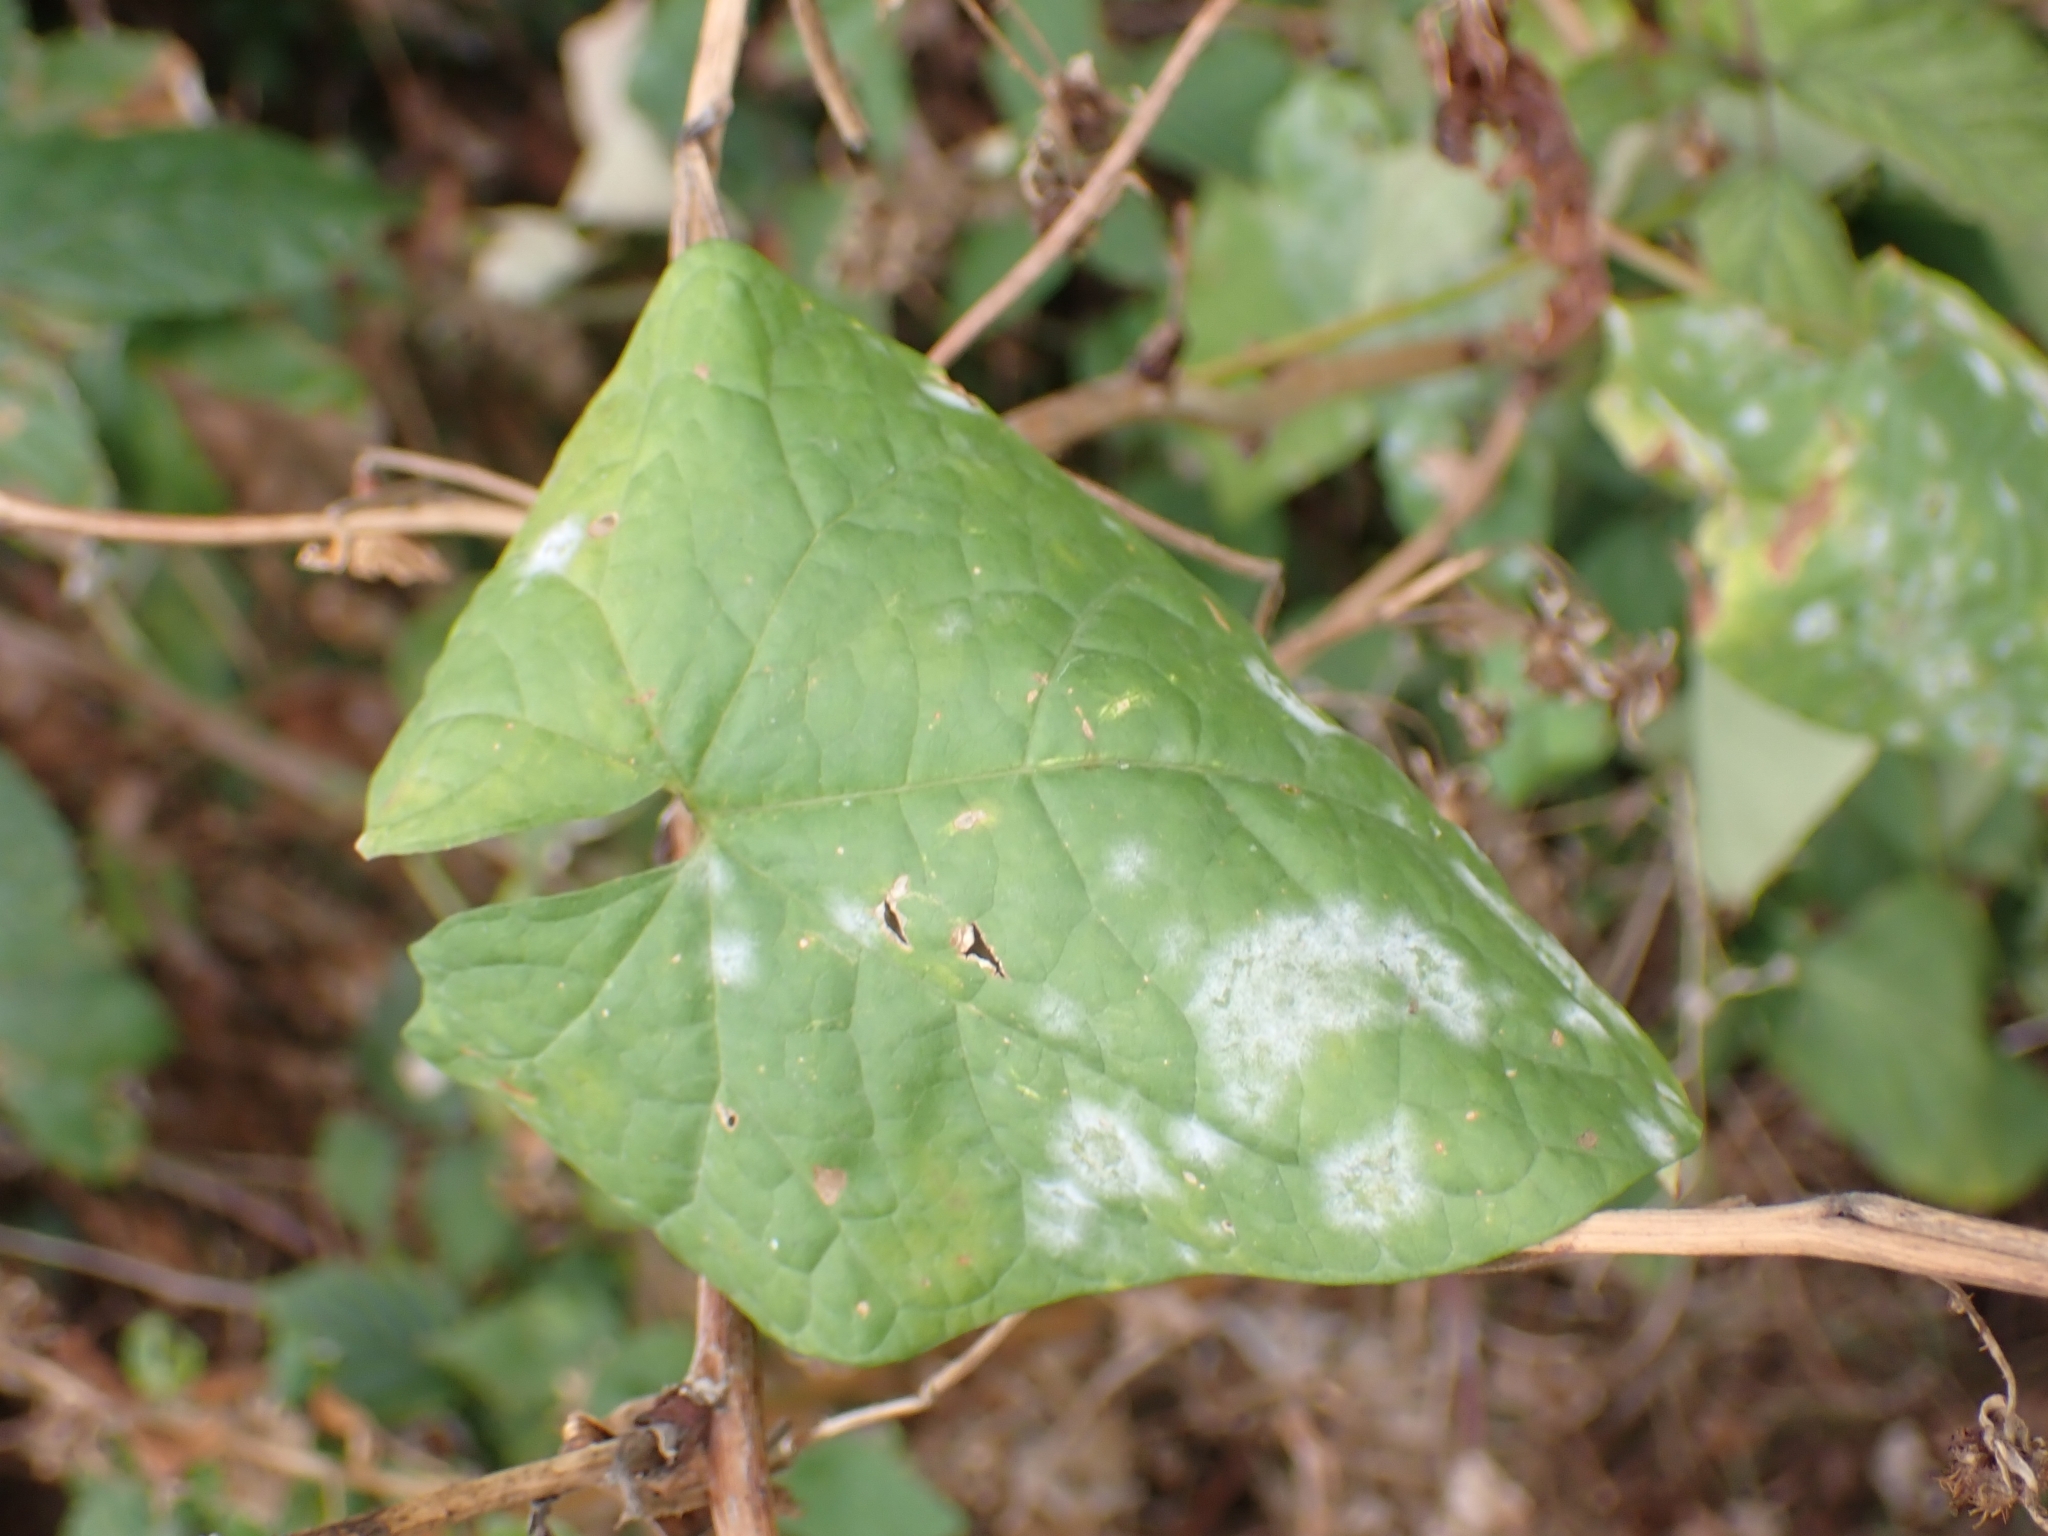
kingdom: Fungi
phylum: Ascomycota
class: Leotiomycetes
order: Helotiales
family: Erysiphaceae
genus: Erysiphe
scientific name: Erysiphe convolvuli
